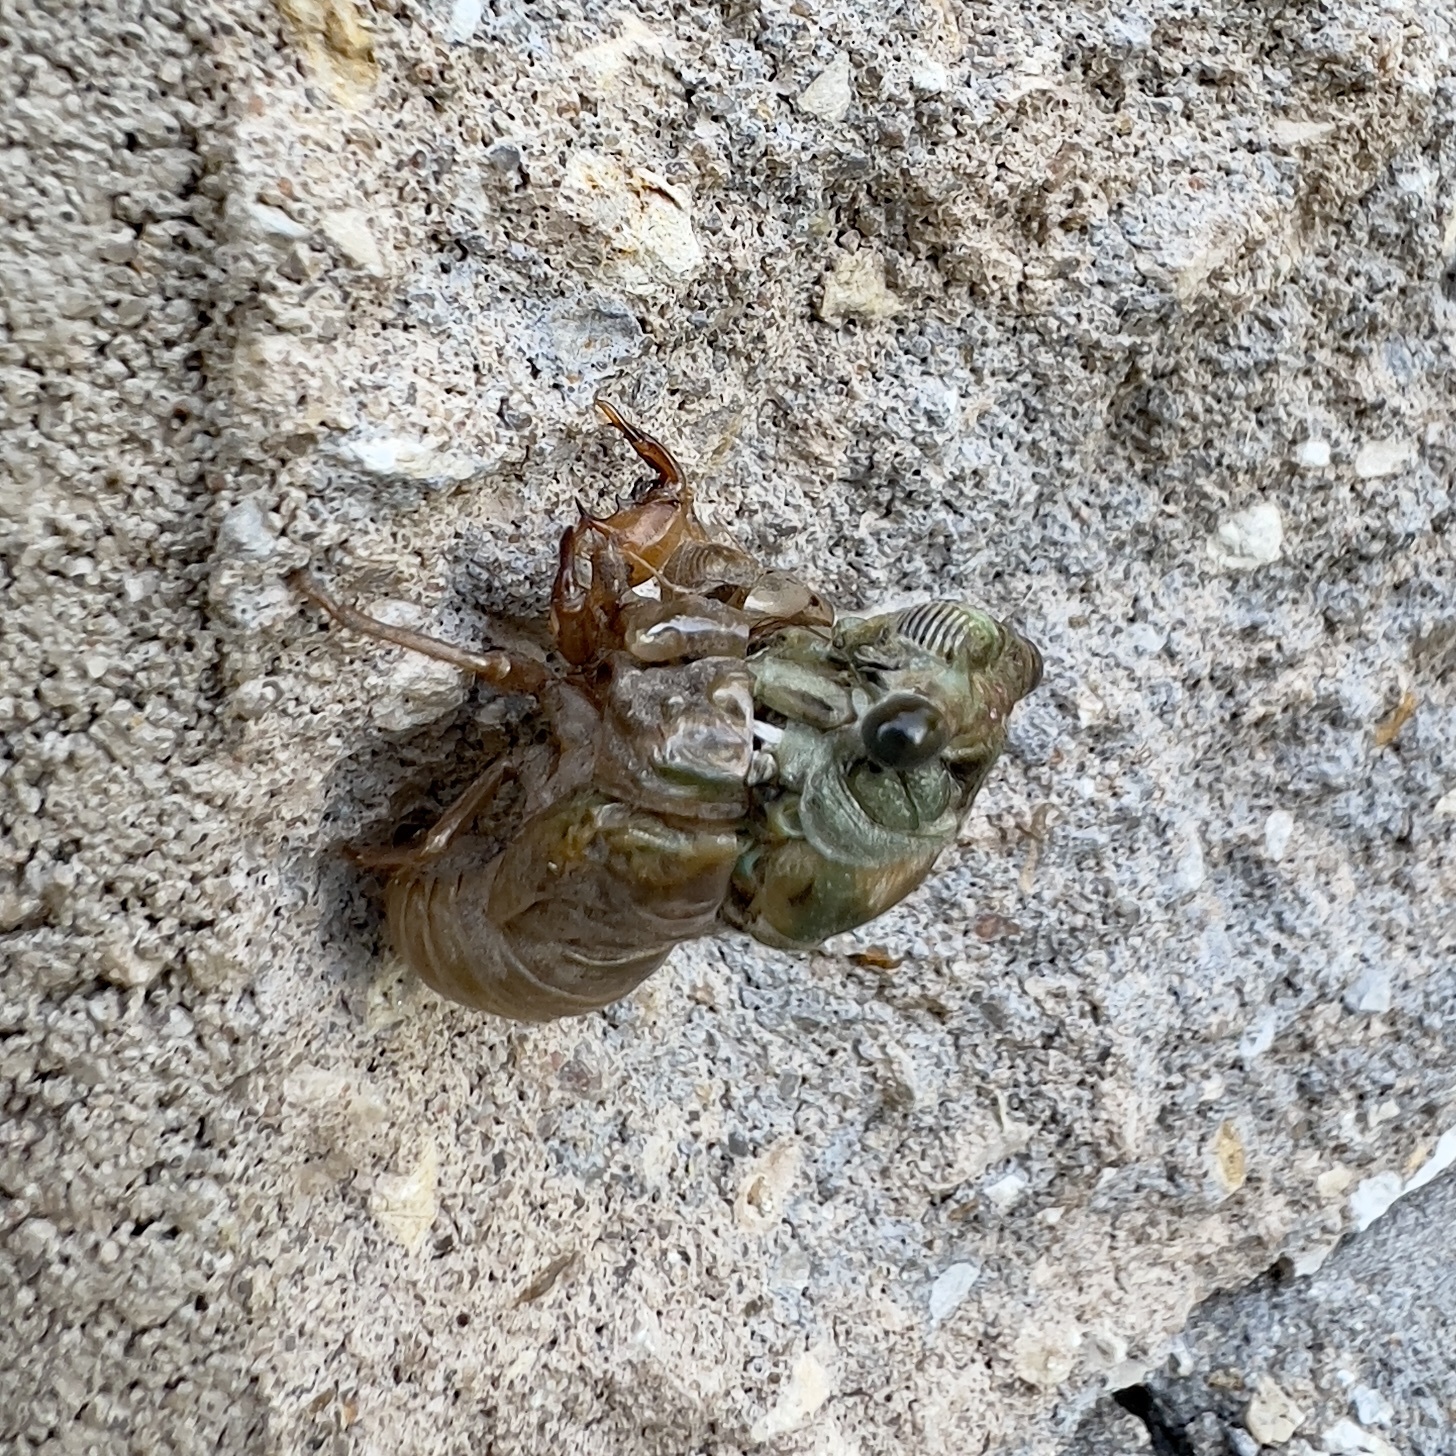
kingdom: Animalia
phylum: Arthropoda
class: Insecta
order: Hemiptera
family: Cicadidae
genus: Neotibicen
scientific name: Neotibicen pruinosus
